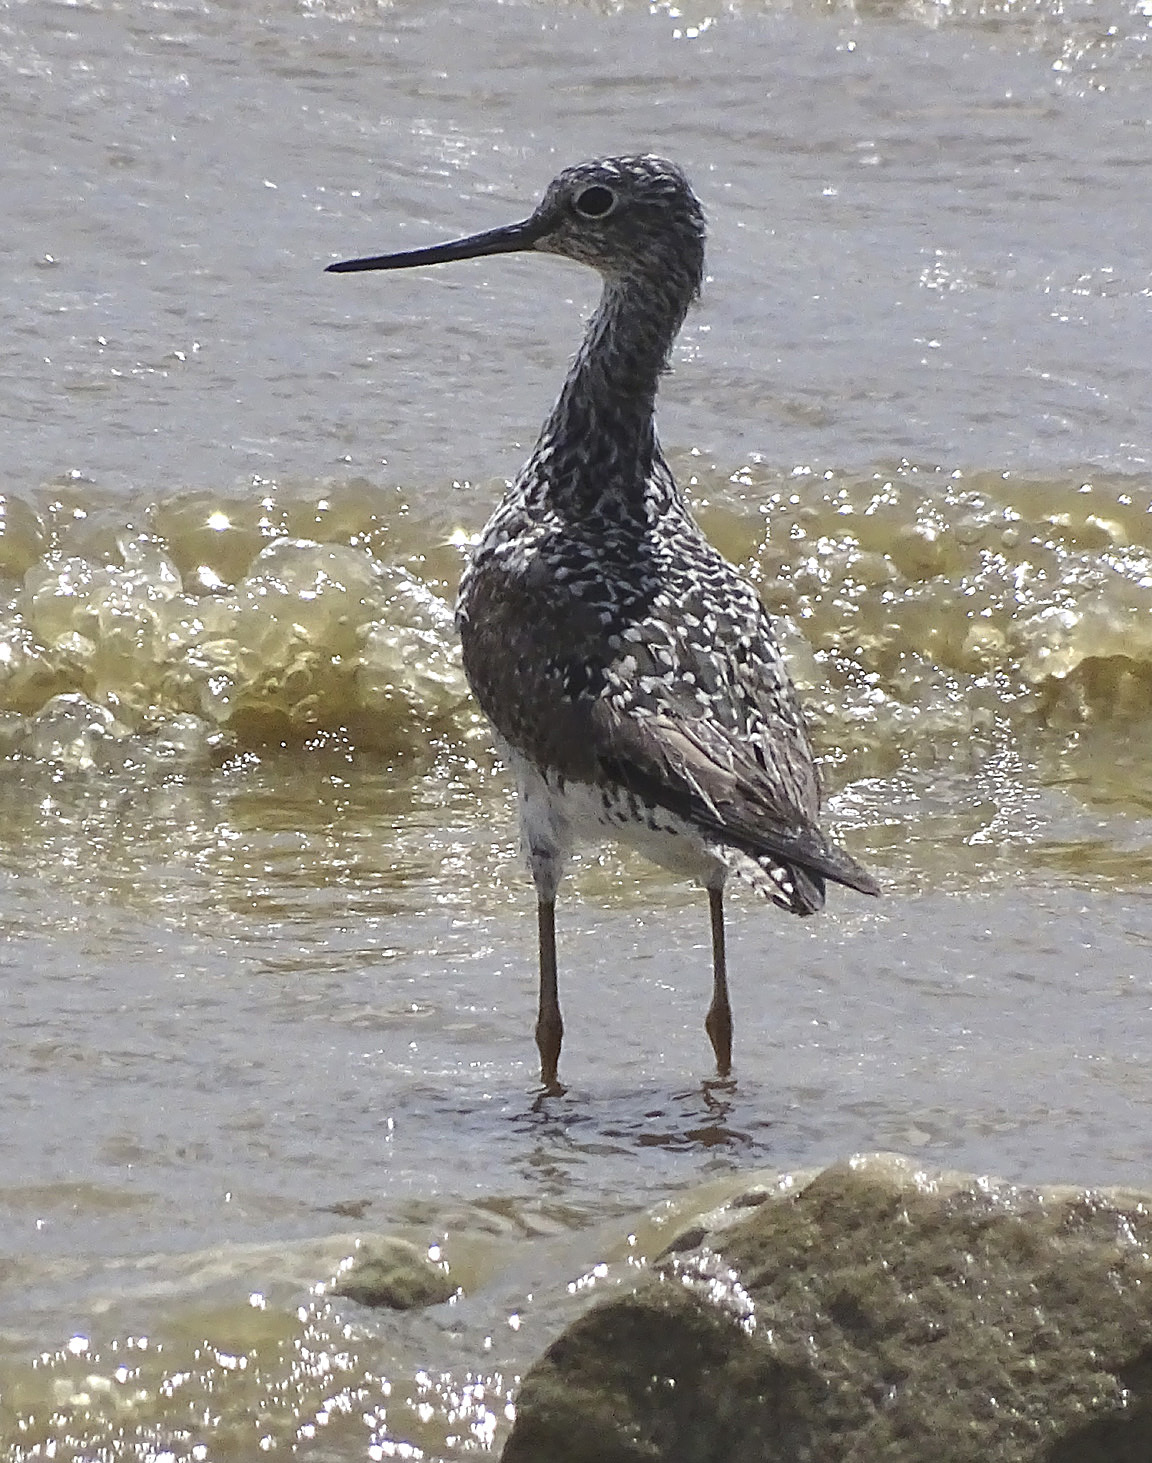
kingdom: Animalia
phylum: Chordata
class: Aves
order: Charadriiformes
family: Scolopacidae
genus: Tringa
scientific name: Tringa melanoleuca
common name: Greater yellowlegs
